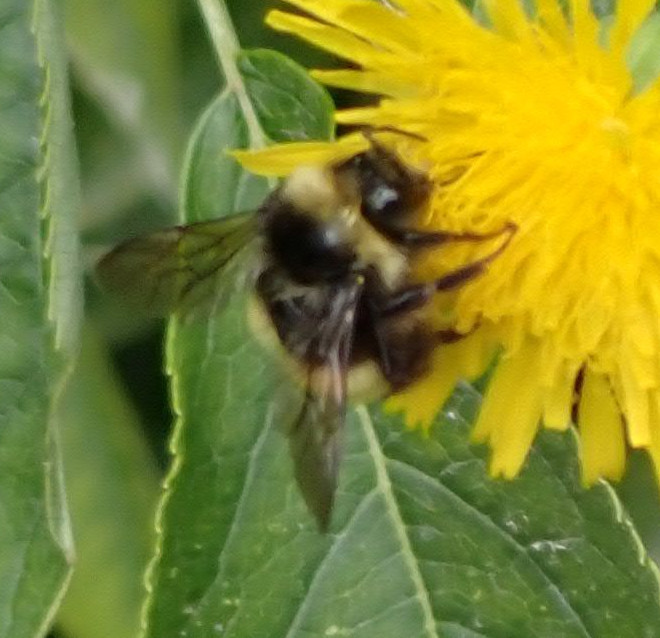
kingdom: Animalia
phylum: Arthropoda
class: Insecta
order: Hymenoptera
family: Apidae
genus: Bombus
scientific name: Bombus terricola
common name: Yellow-banded bumble bee
